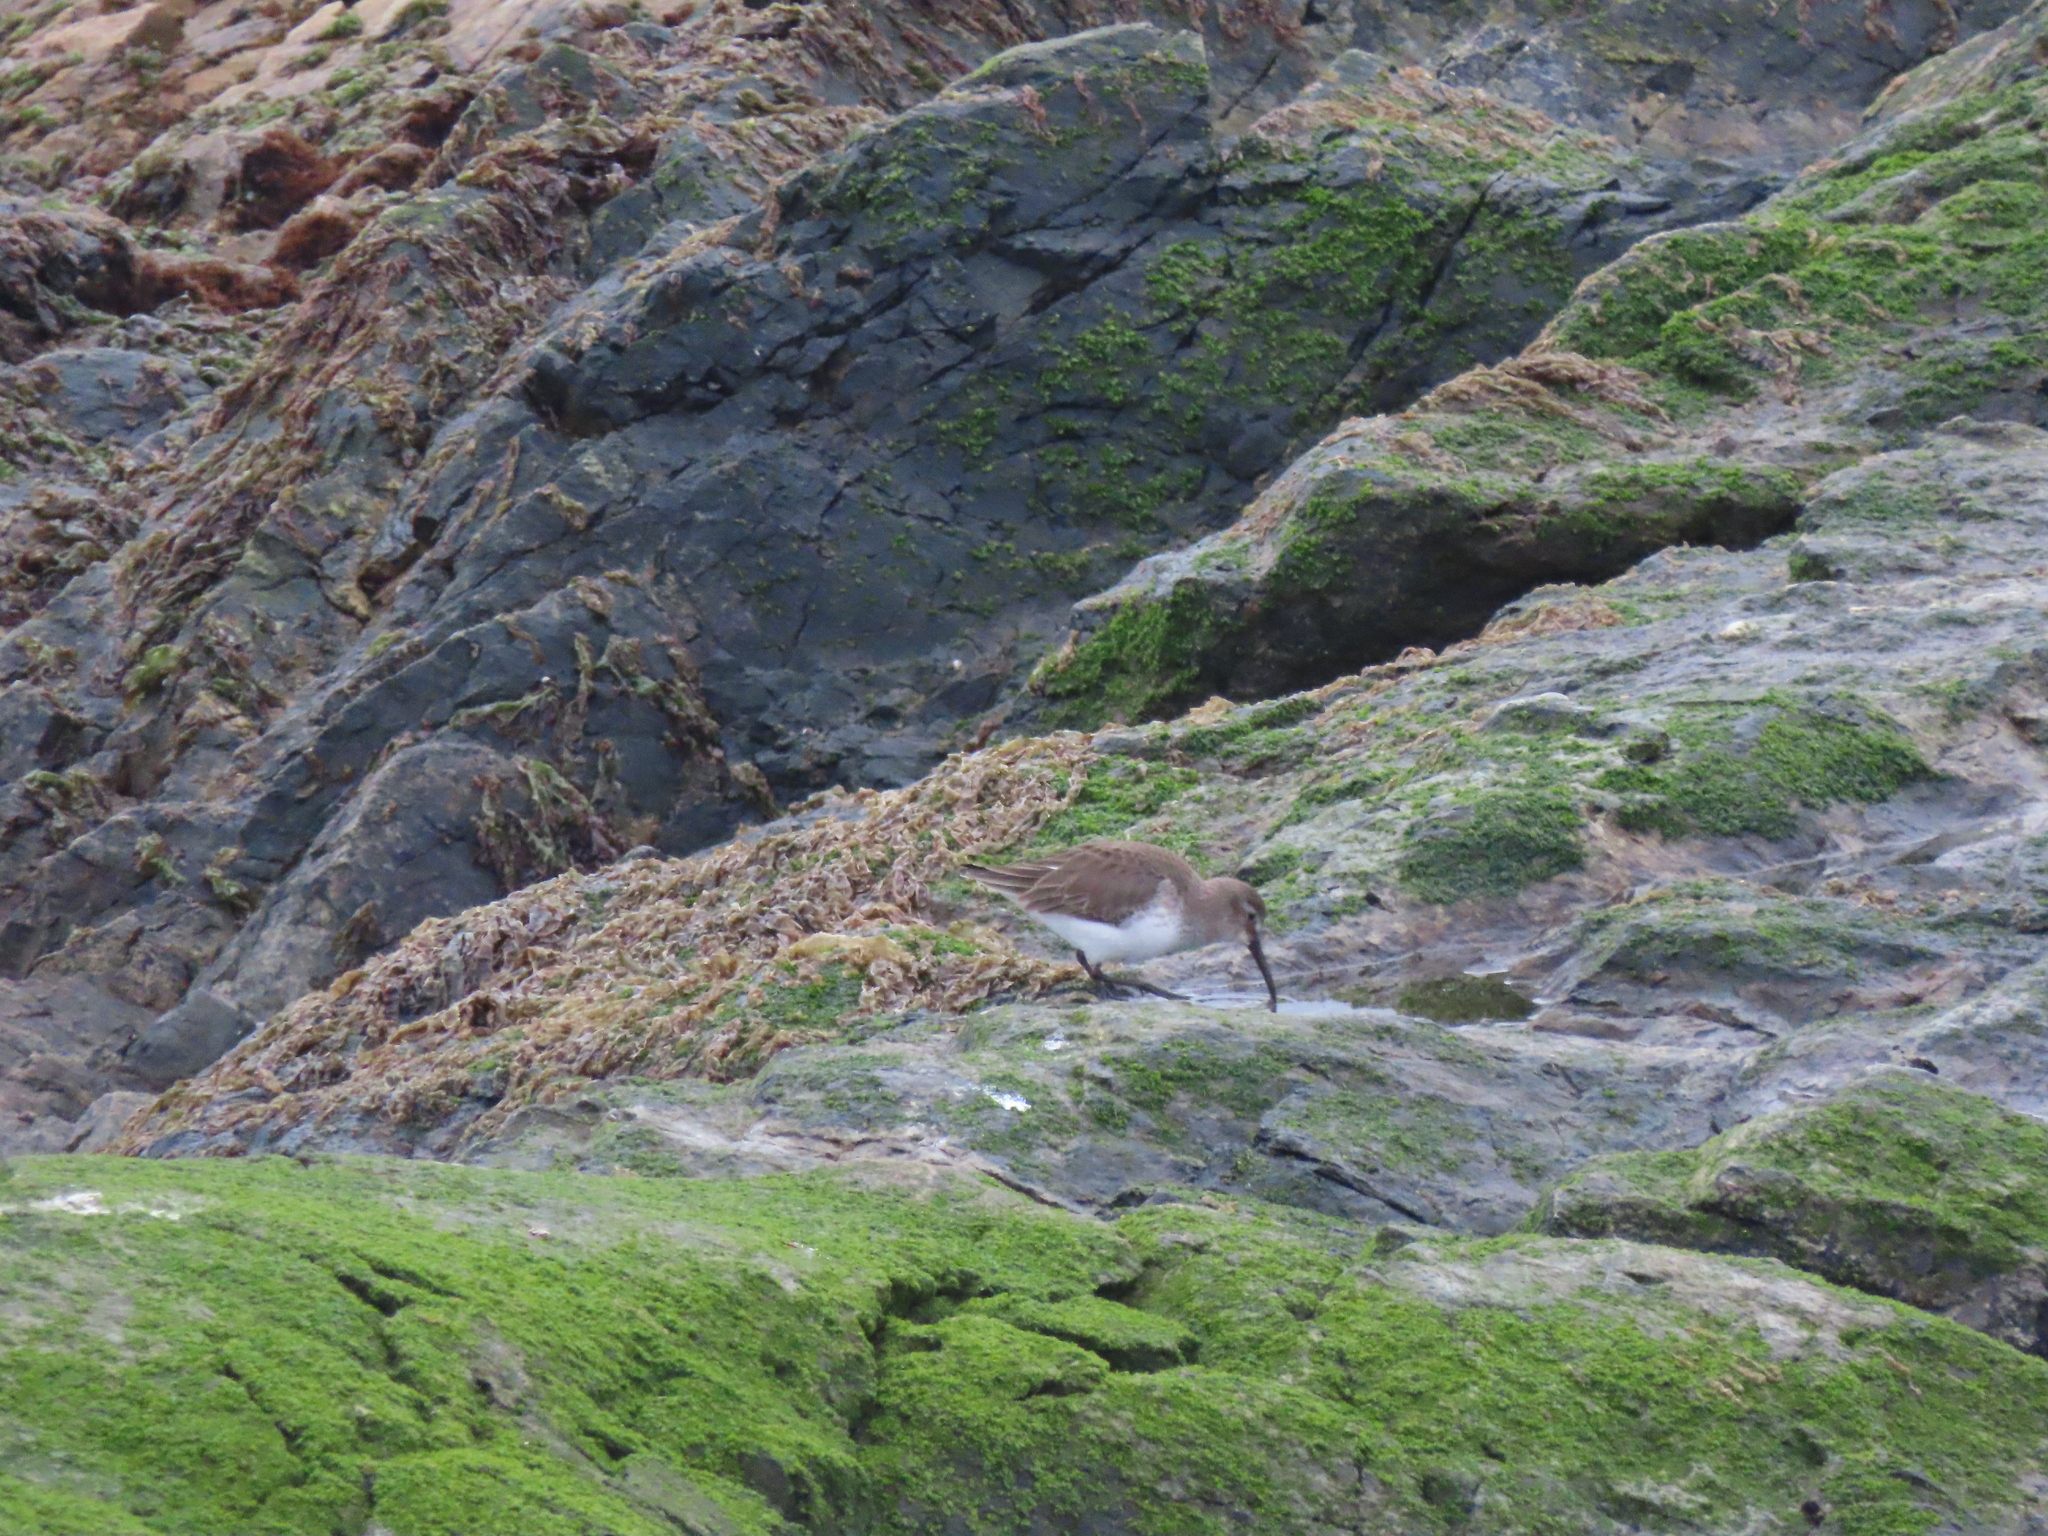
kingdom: Animalia
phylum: Chordata
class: Aves
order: Charadriiformes
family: Scolopacidae
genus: Calidris
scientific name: Calidris alpina
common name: Dunlin
